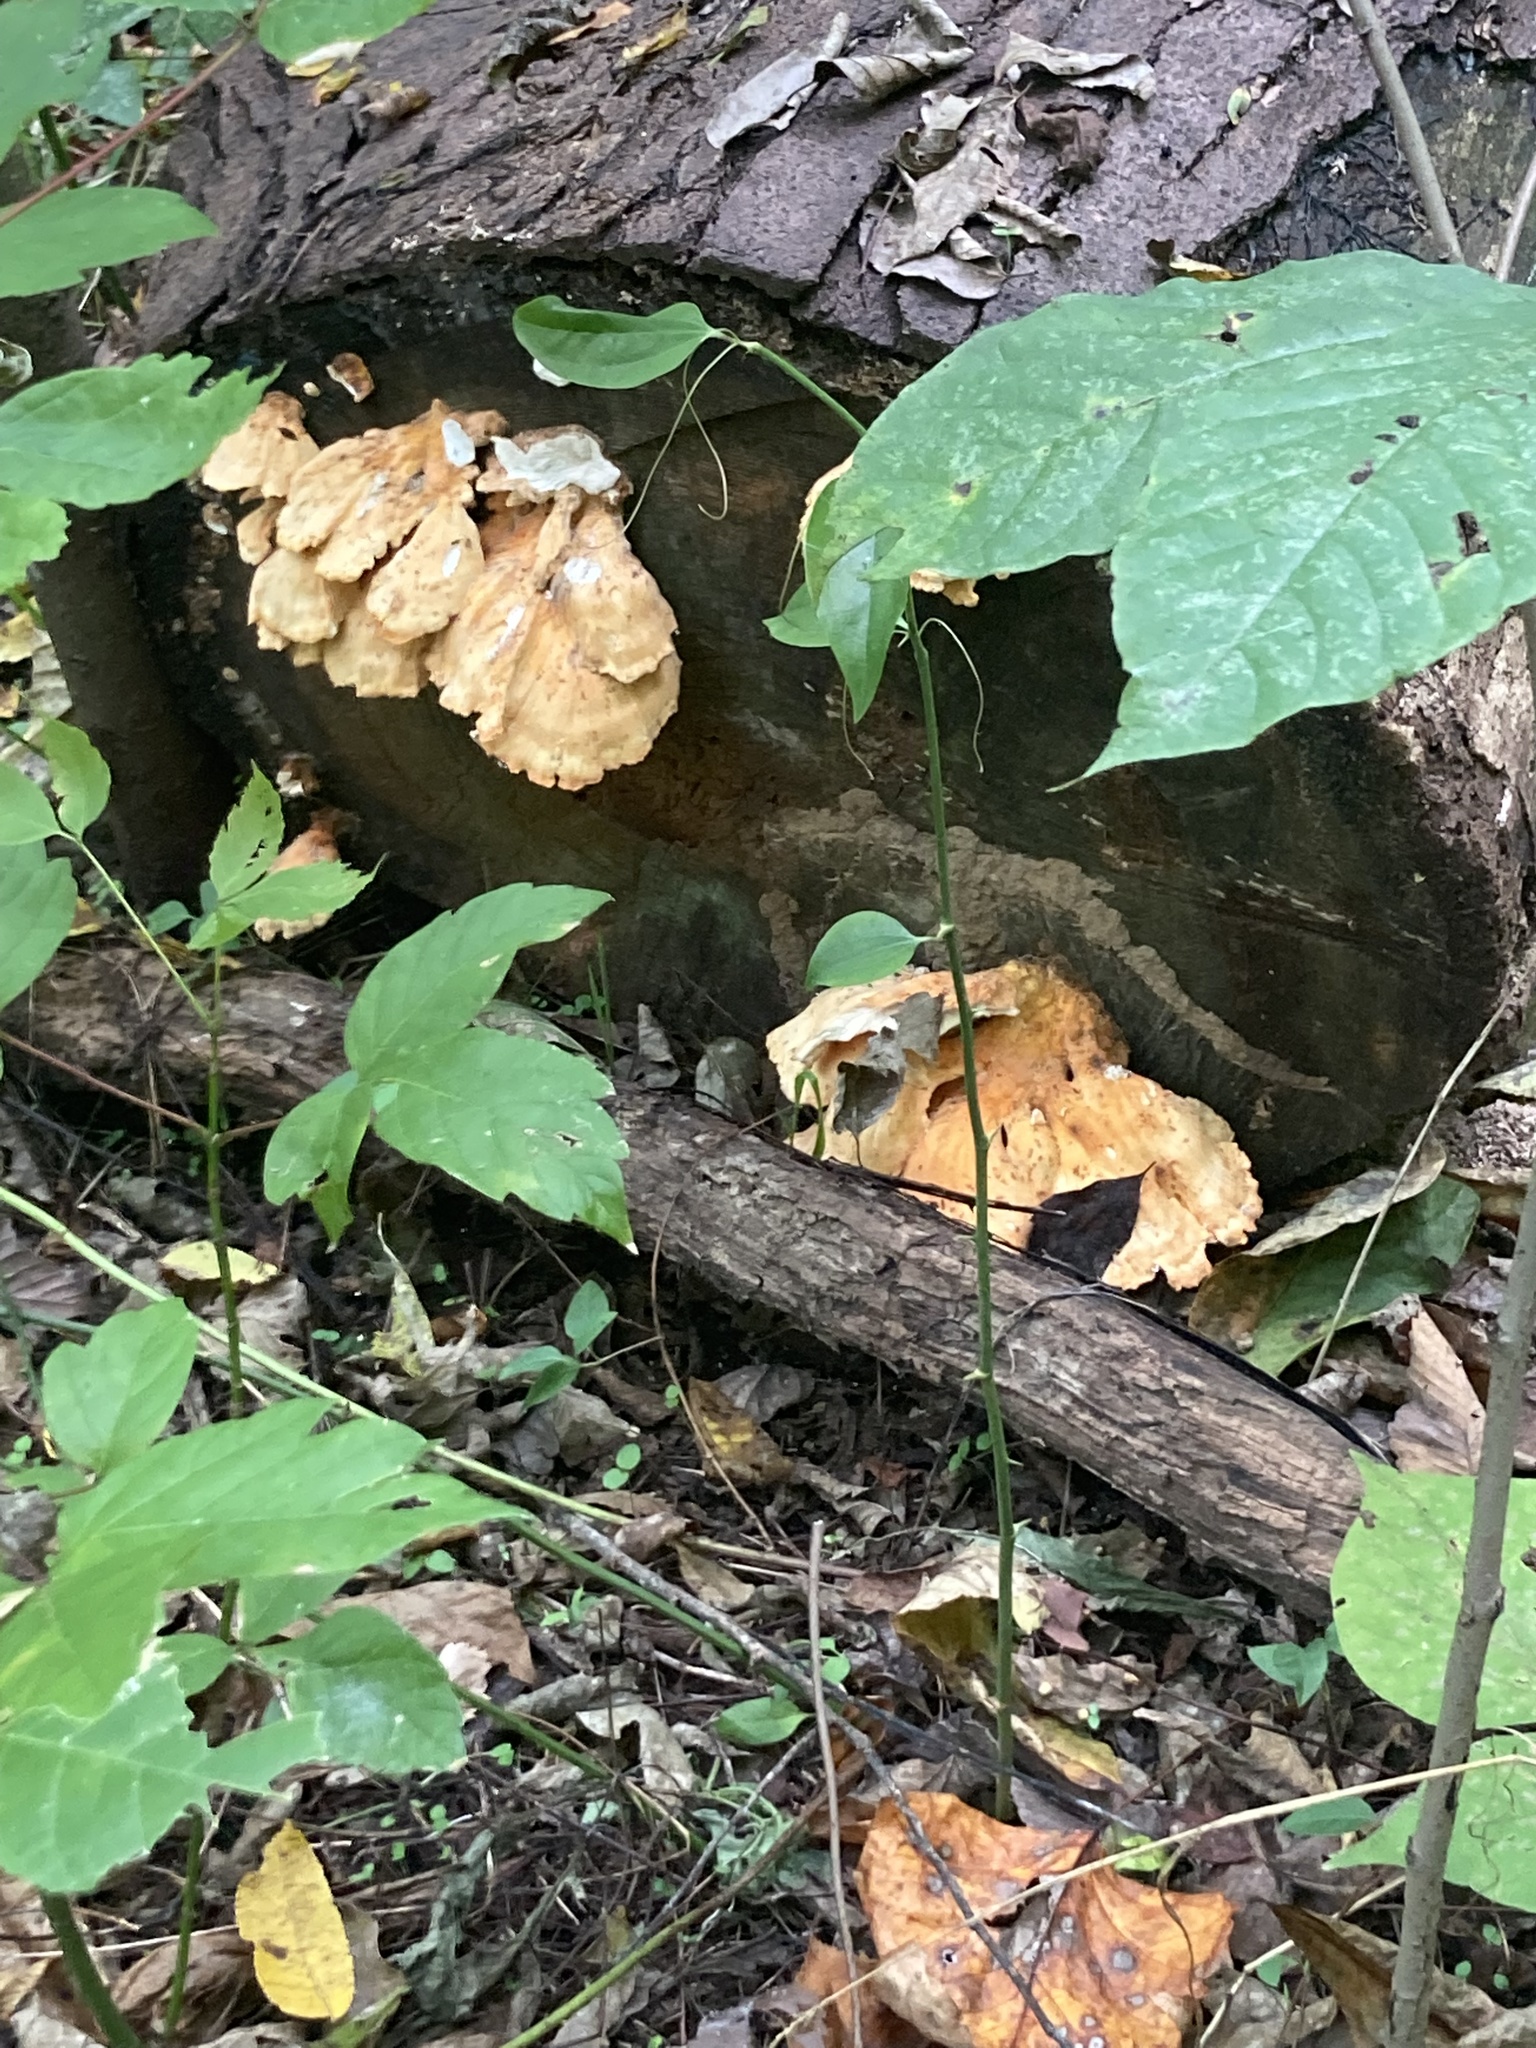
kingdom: Animalia
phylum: Chordata
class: Amphibia
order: Caudata
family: Salamandridae
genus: Notophthalmus
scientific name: Notophthalmus viridescens
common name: Eastern newt
